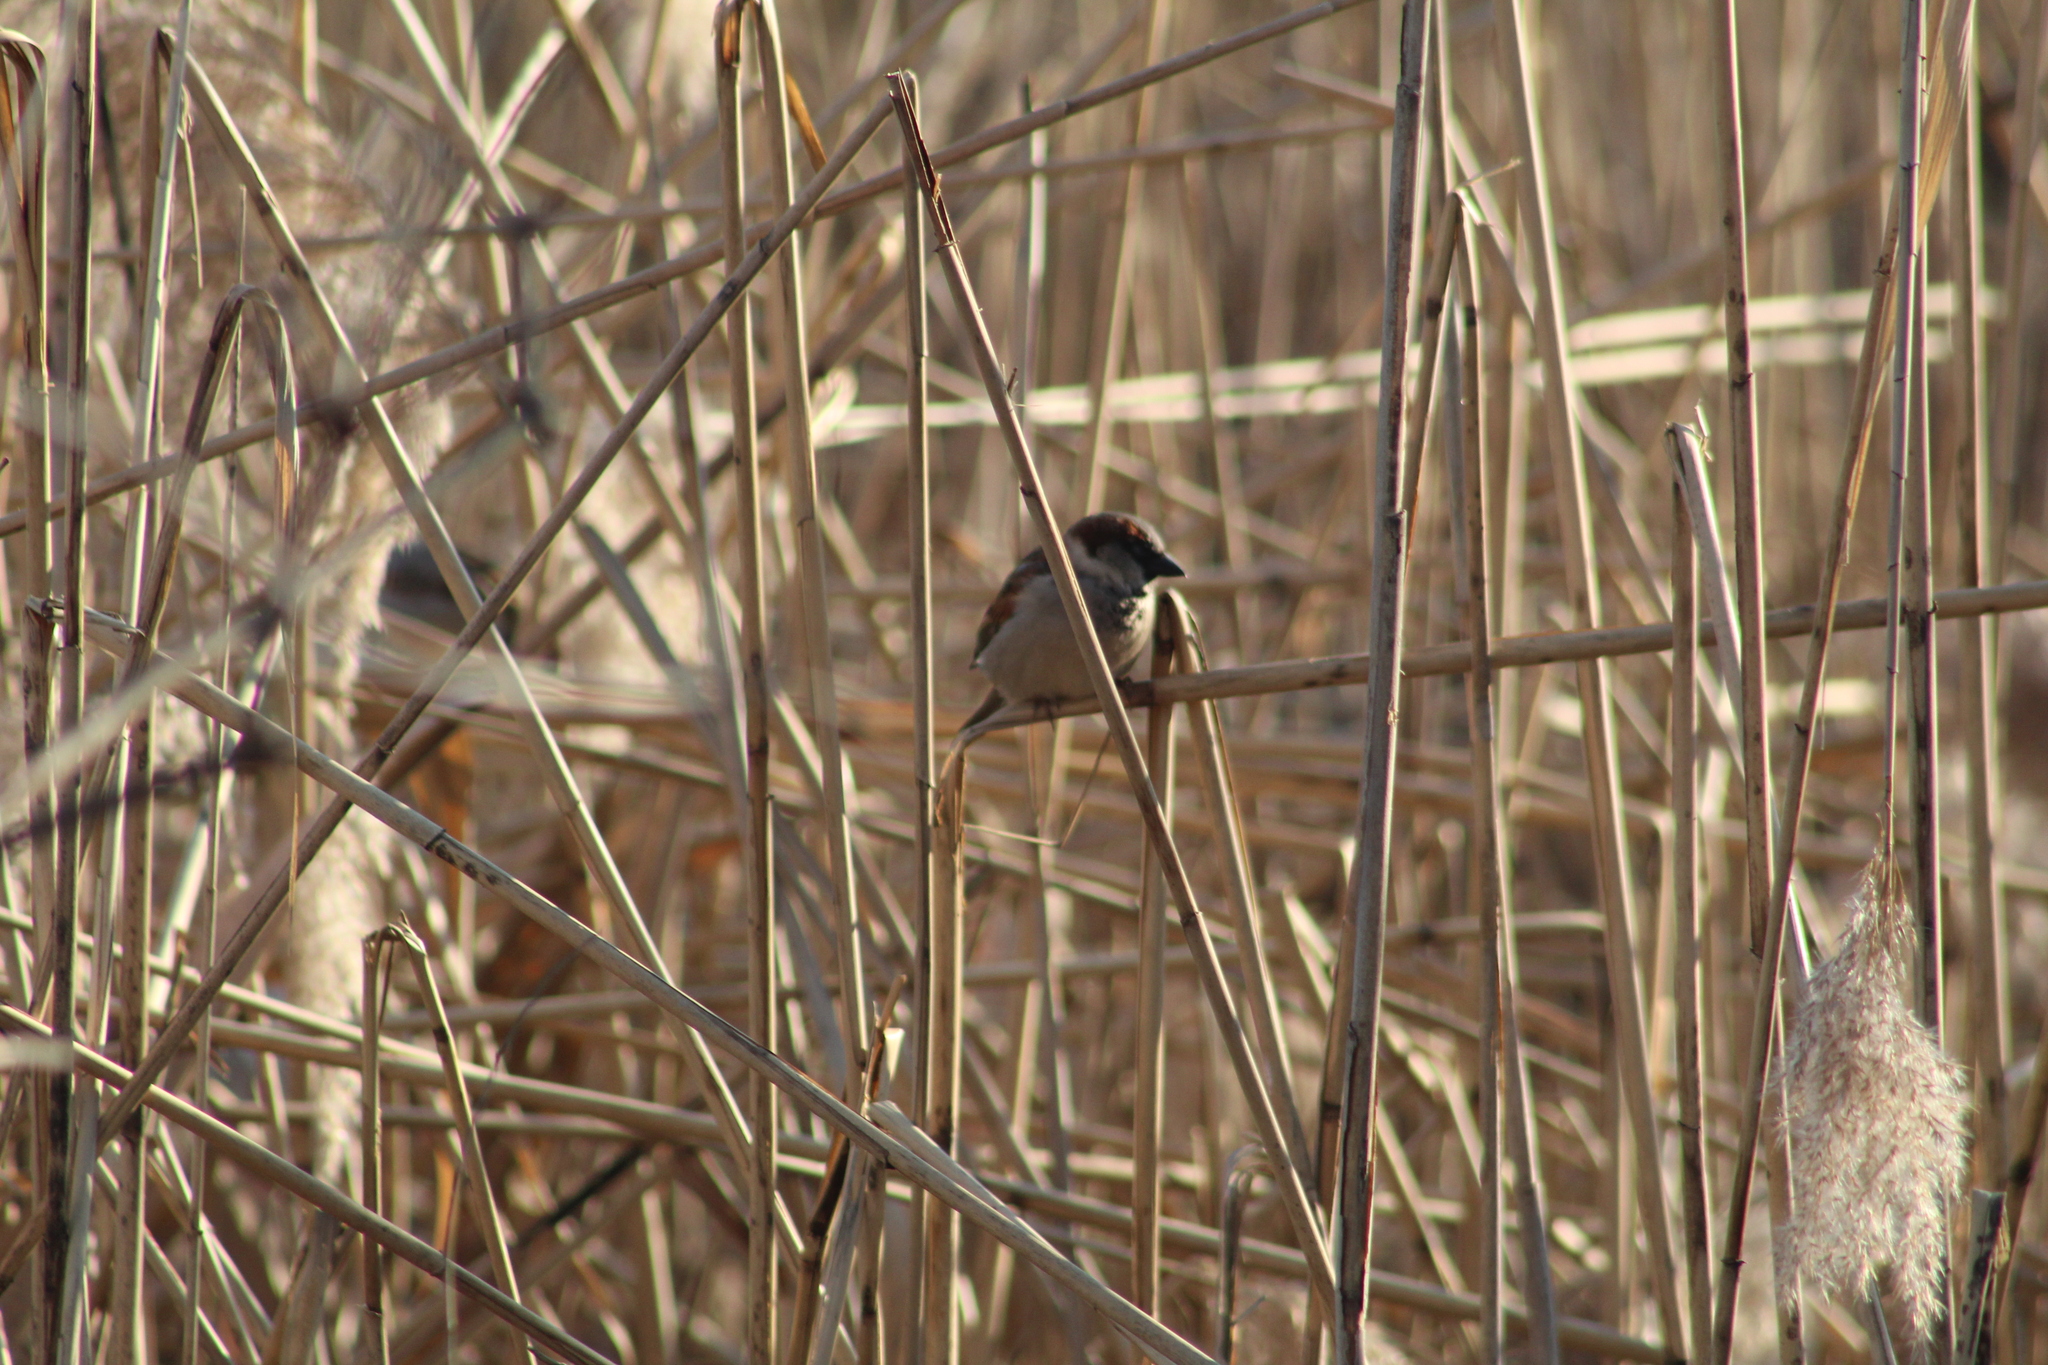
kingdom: Animalia
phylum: Chordata
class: Aves
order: Passeriformes
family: Passeridae
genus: Passer
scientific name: Passer domesticus
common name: House sparrow
